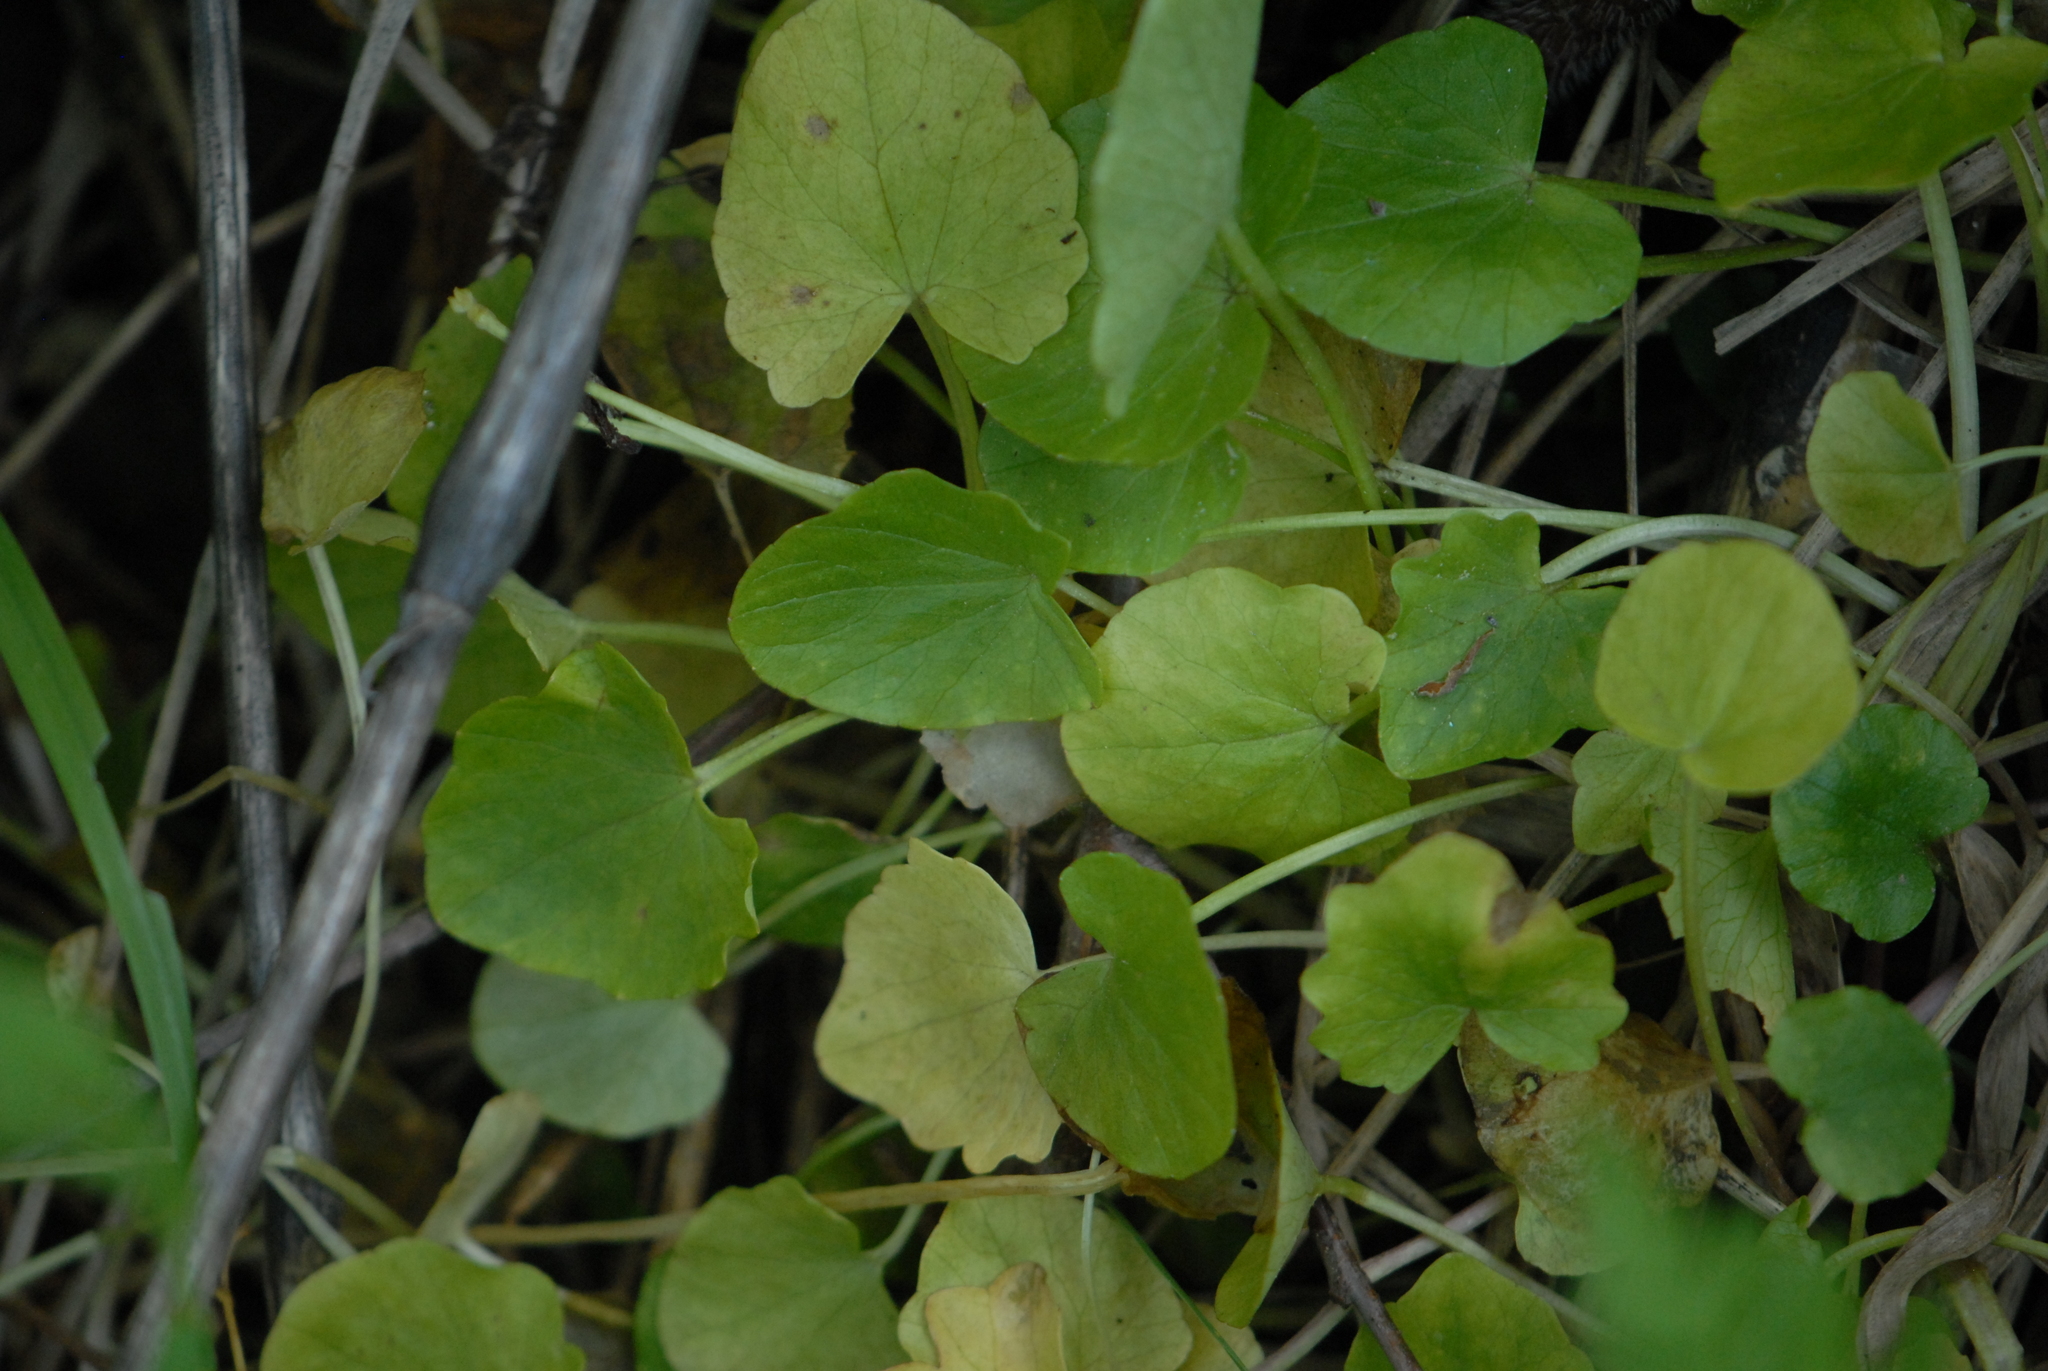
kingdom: Plantae
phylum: Tracheophyta
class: Magnoliopsida
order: Ranunculales
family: Ranunculaceae
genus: Ficaria
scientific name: Ficaria verna
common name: Lesser celandine
